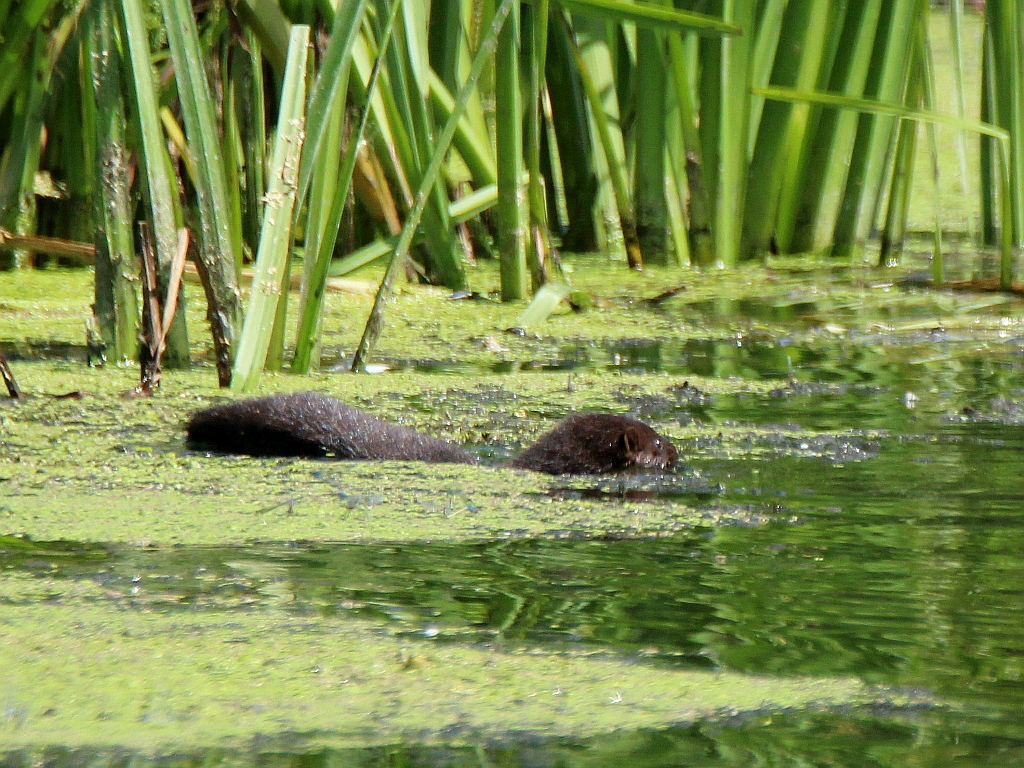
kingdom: Animalia
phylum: Chordata
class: Mammalia
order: Carnivora
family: Mustelidae
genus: Mustela
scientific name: Mustela
